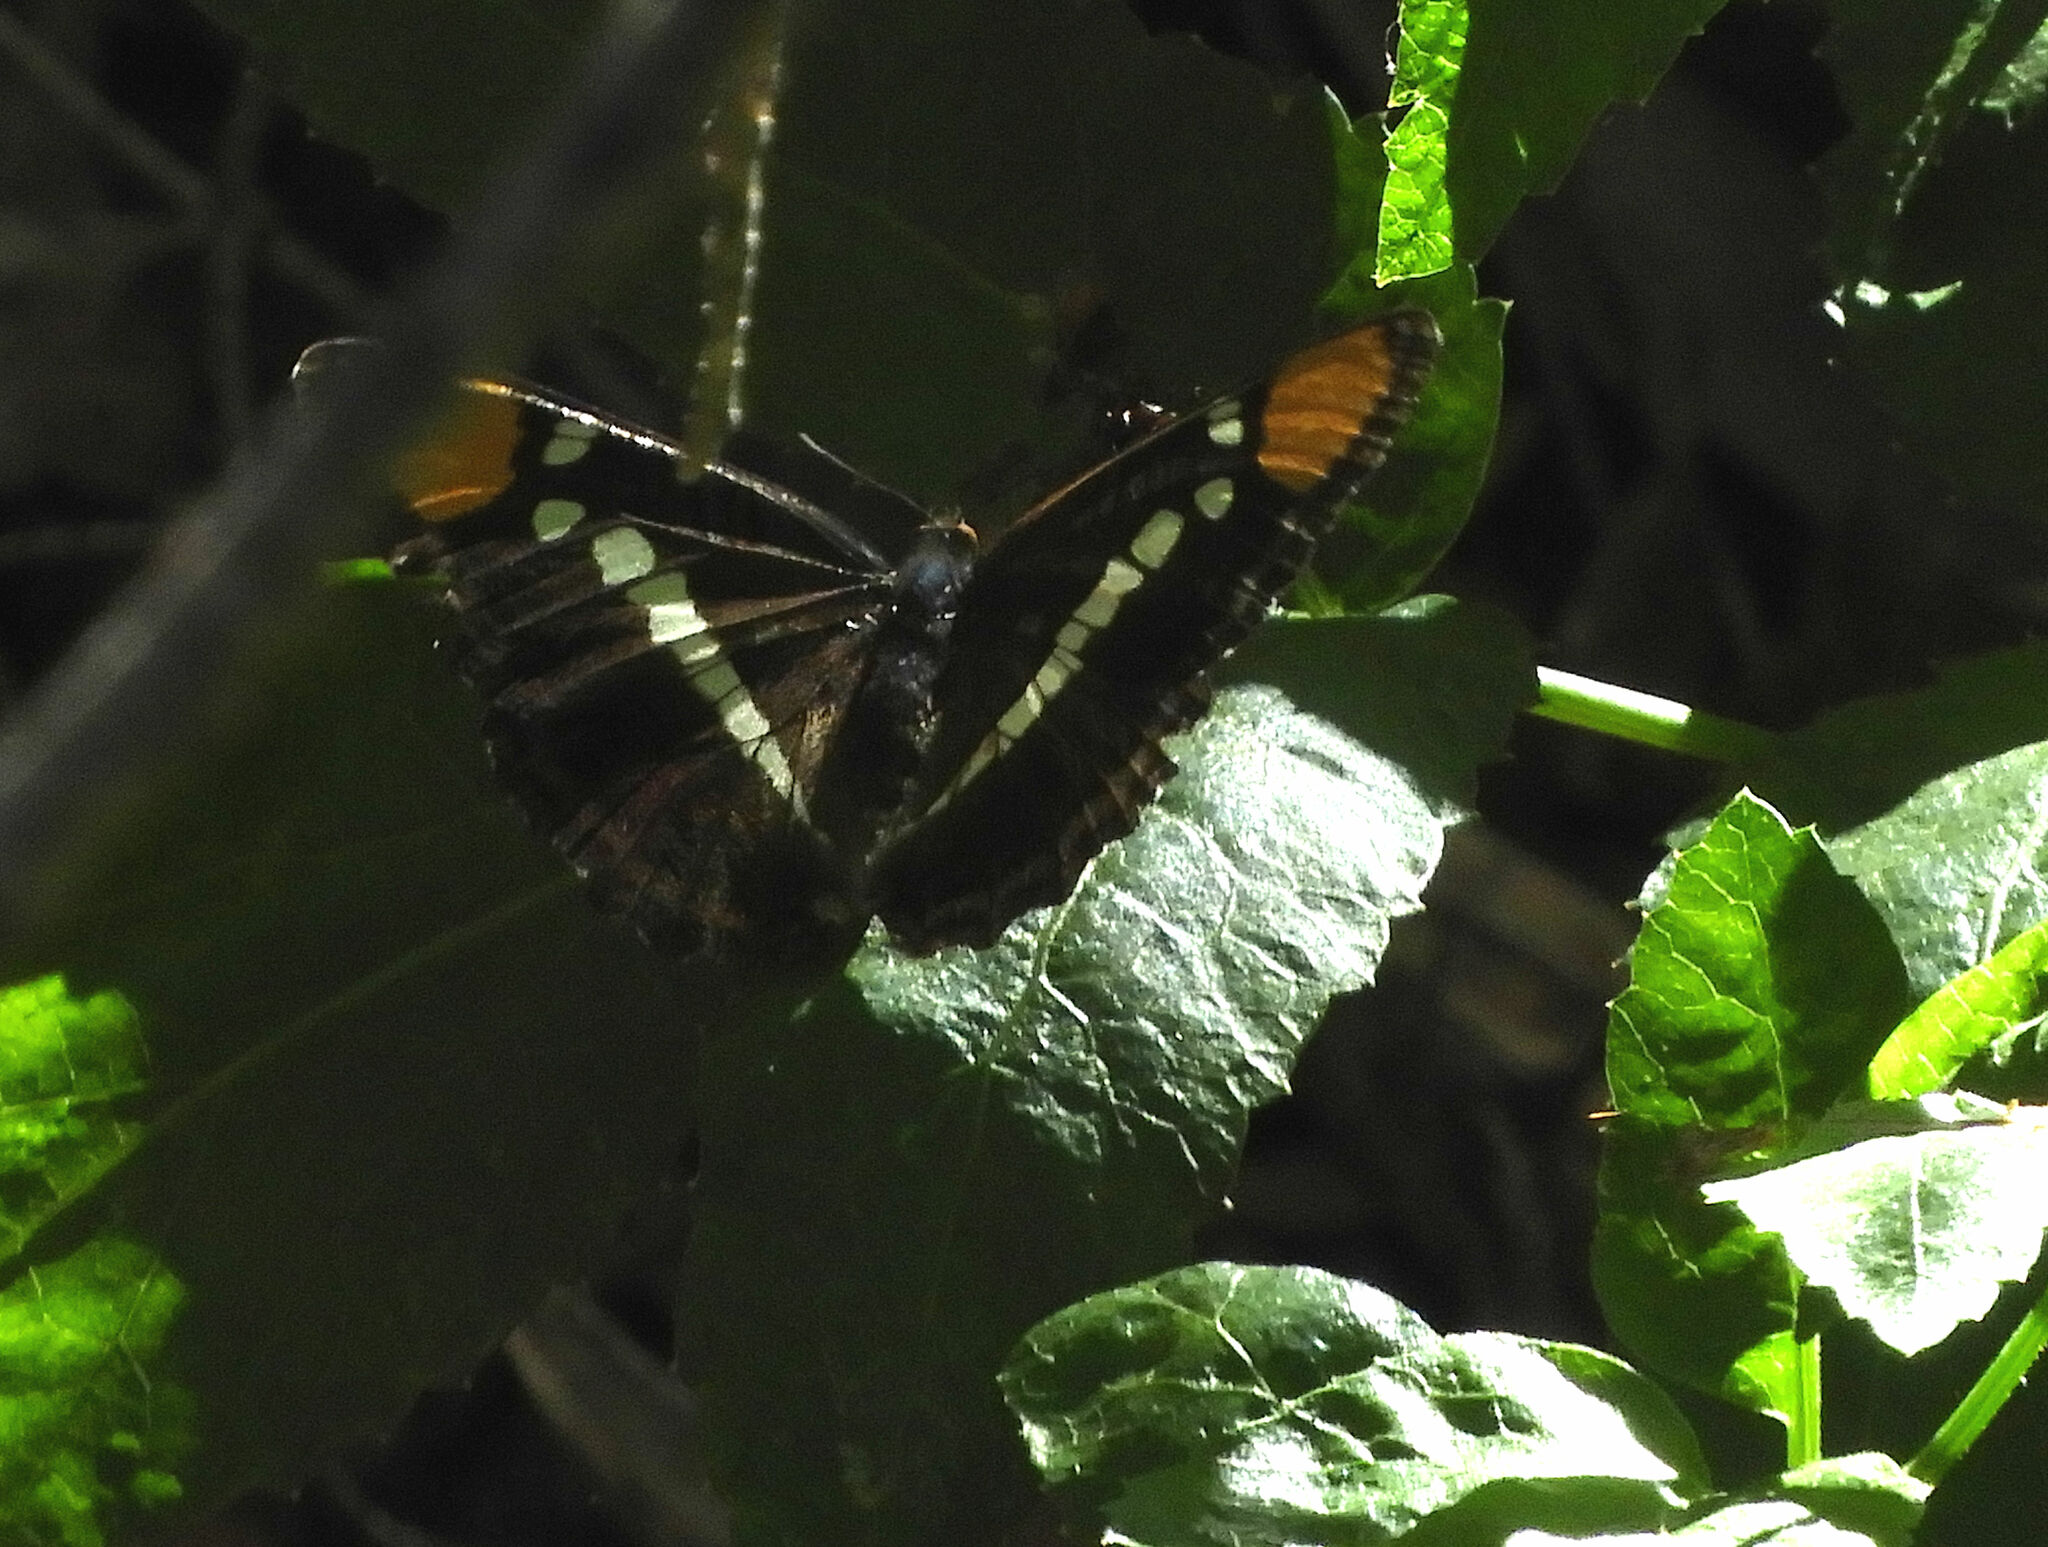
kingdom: Animalia
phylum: Arthropoda
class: Insecta
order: Lepidoptera
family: Nymphalidae
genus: Limenitis
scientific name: Limenitis bredowii
